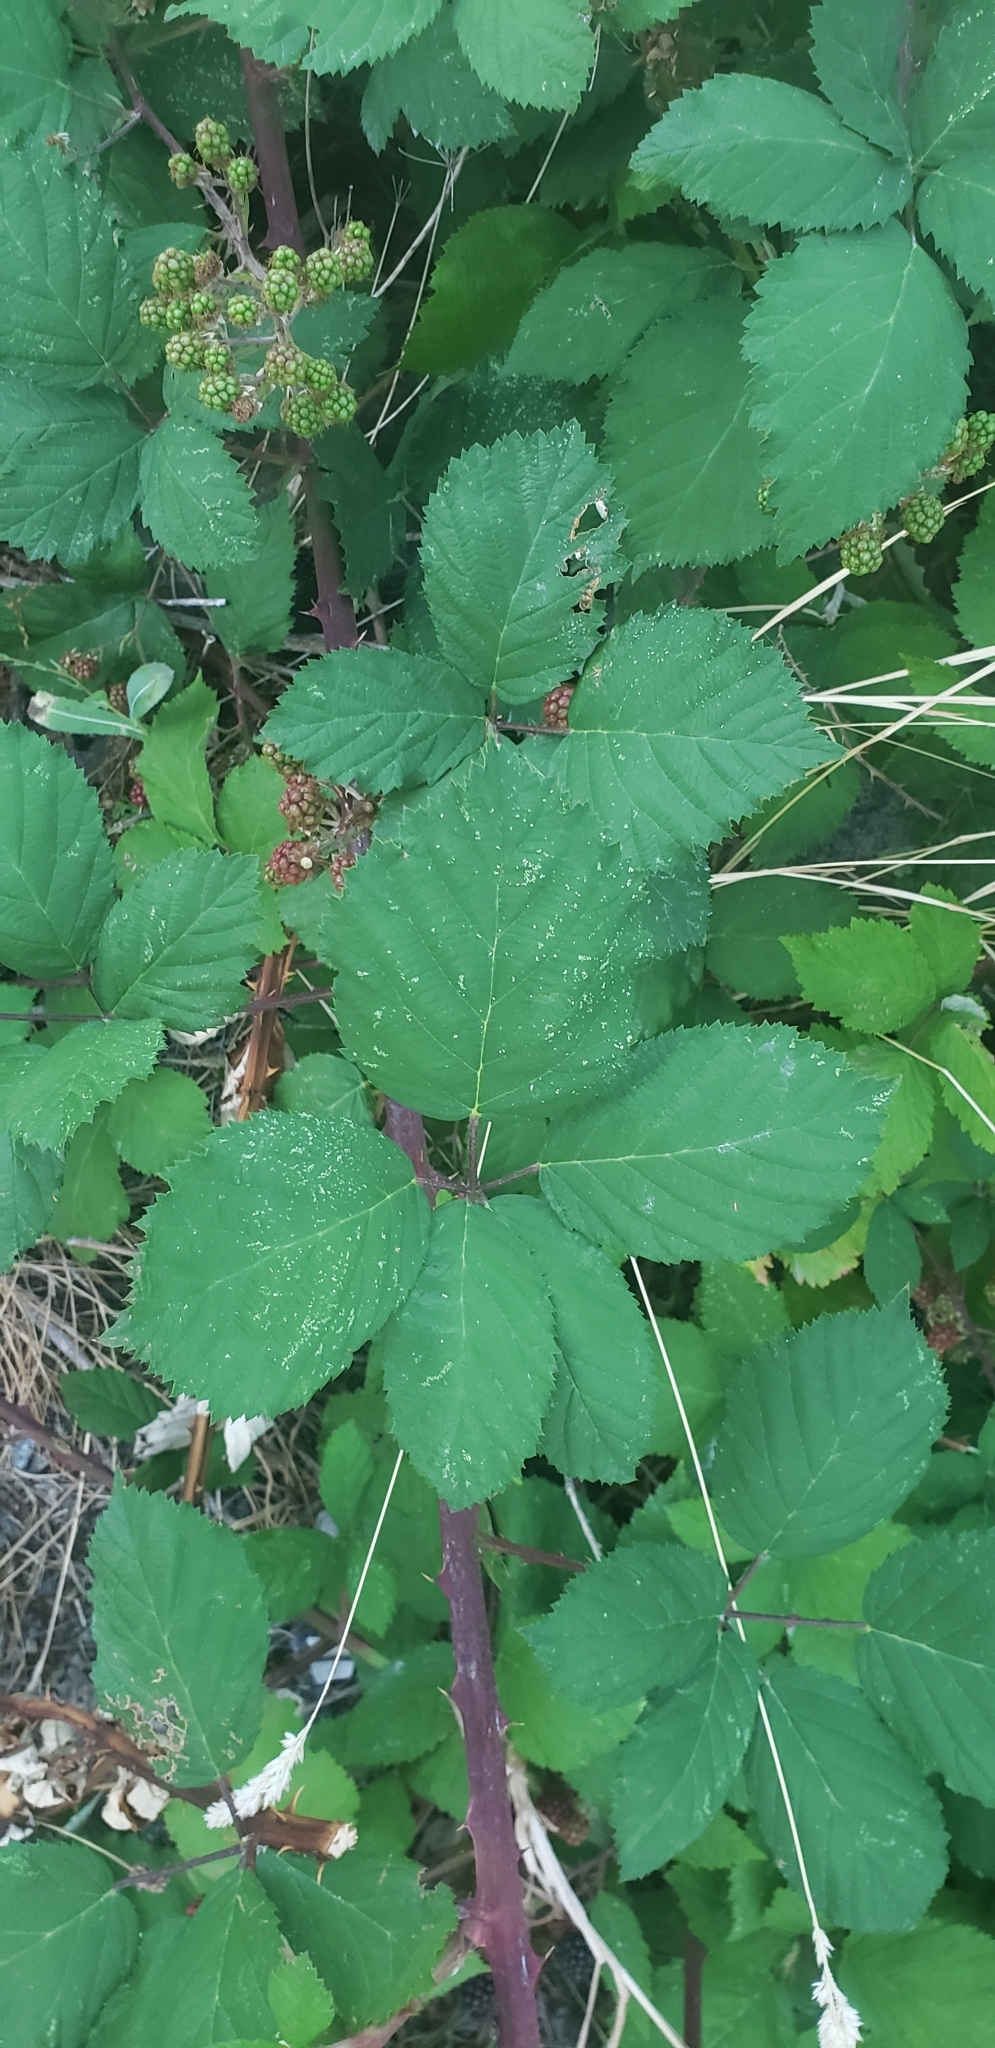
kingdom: Plantae
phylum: Tracheophyta
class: Magnoliopsida
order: Rosales
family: Rosaceae
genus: Rubus
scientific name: Rubus armeniacus
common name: Himalayan blackberry
